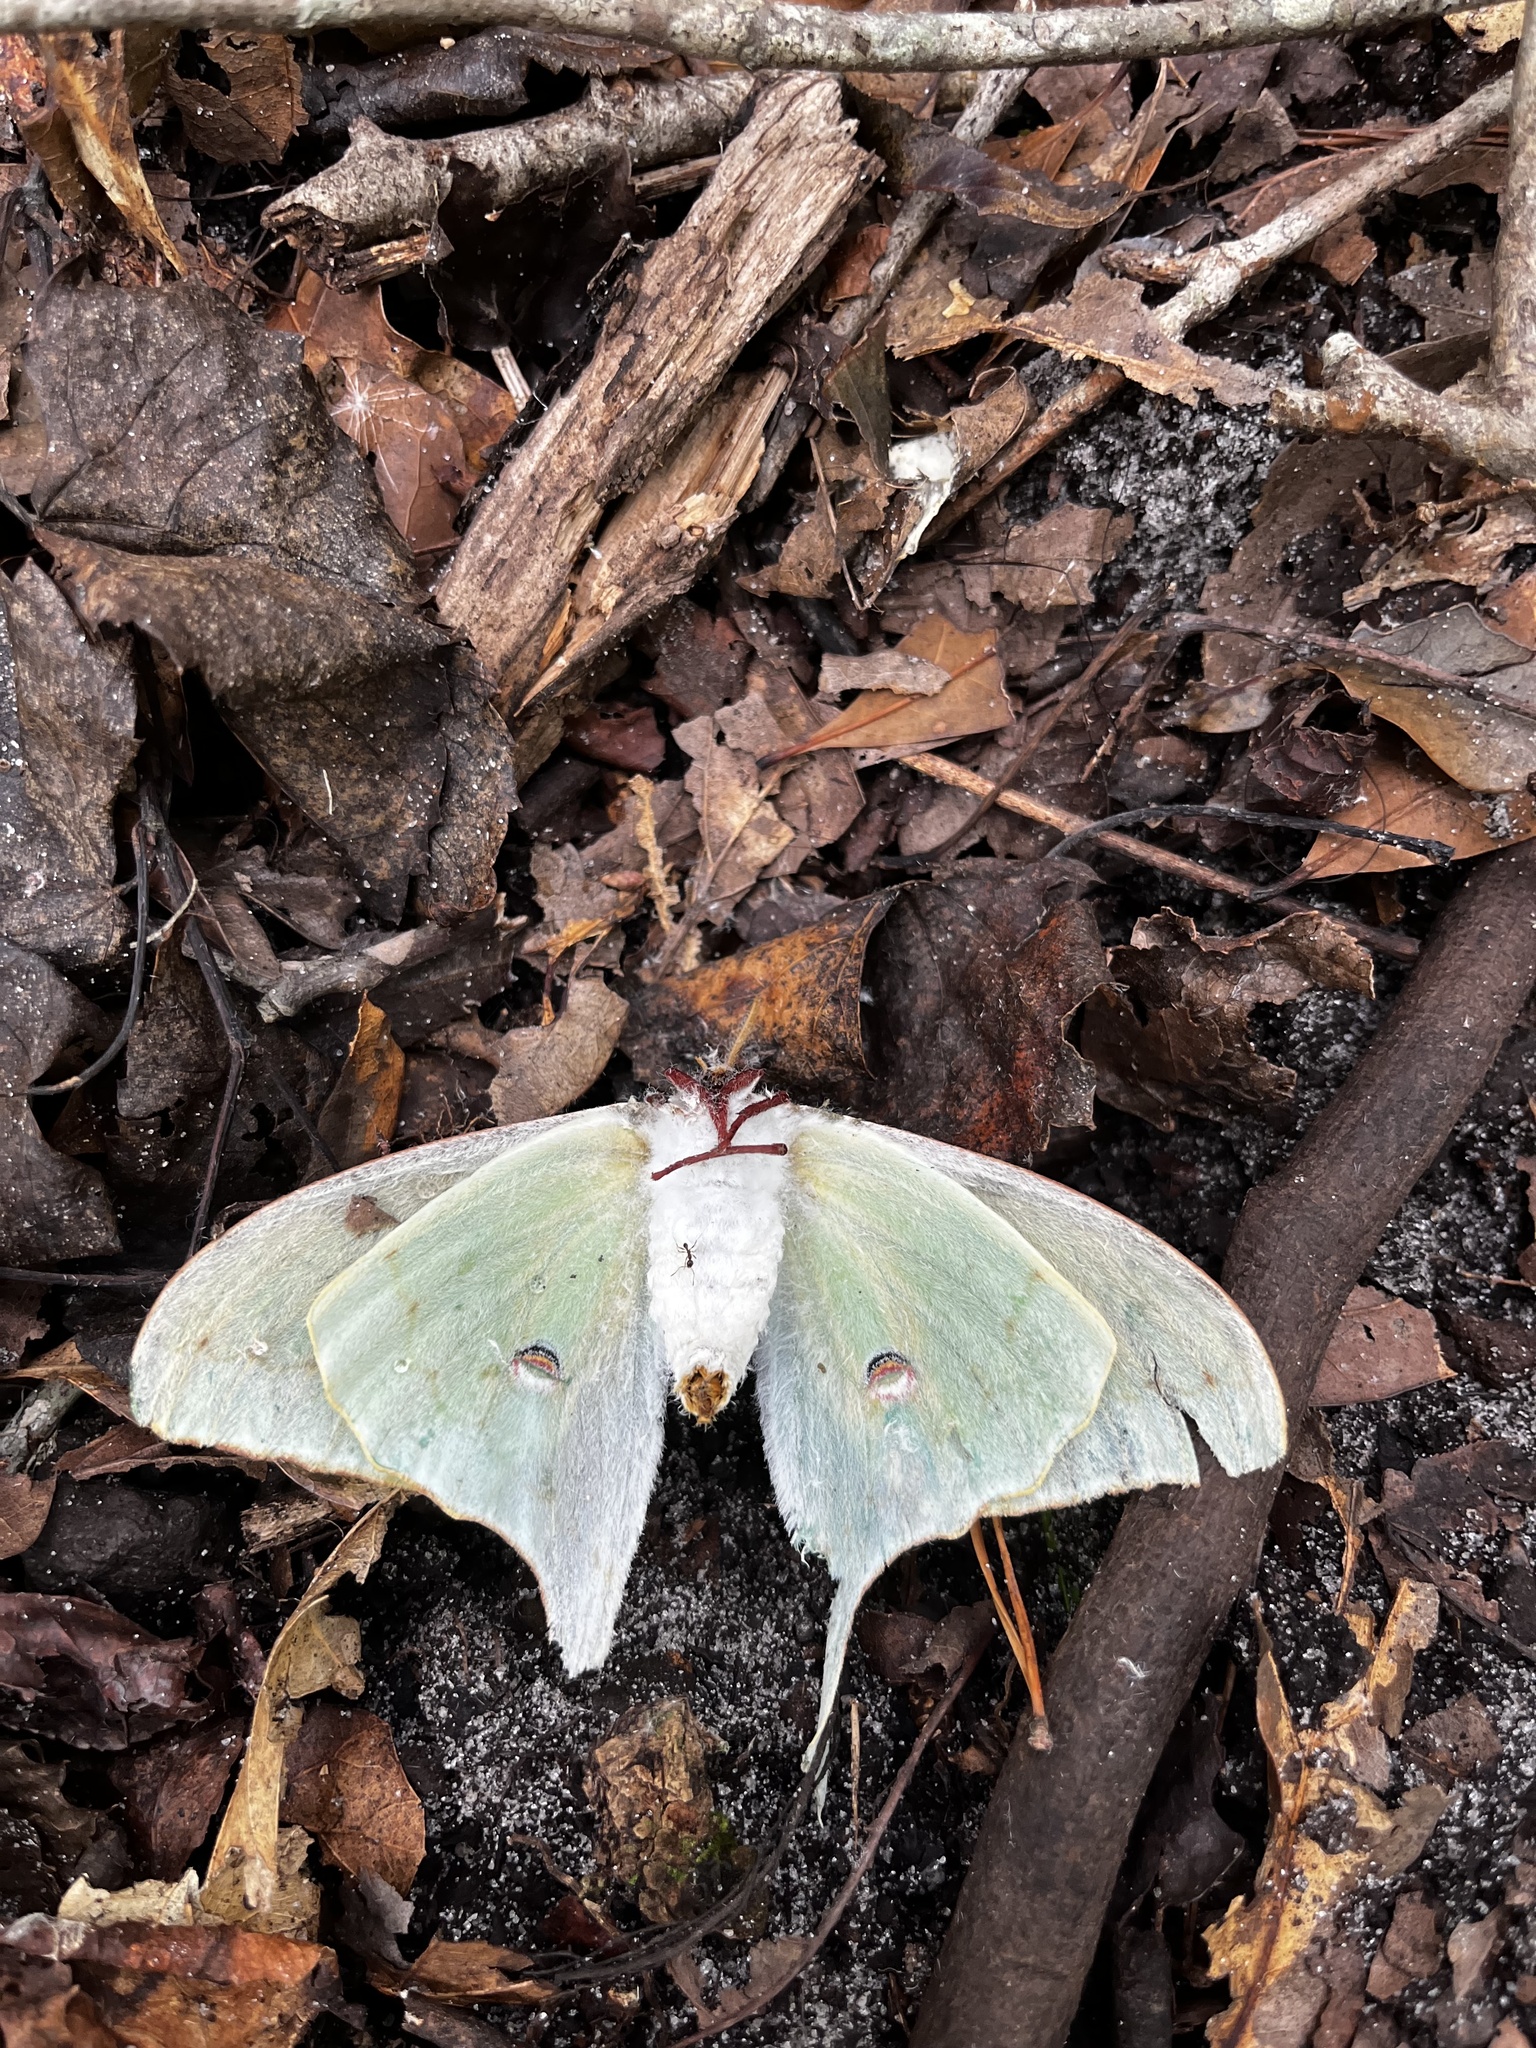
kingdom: Animalia
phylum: Arthropoda
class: Insecta
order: Lepidoptera
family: Saturniidae
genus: Actias
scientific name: Actias luna
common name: Luna moth
